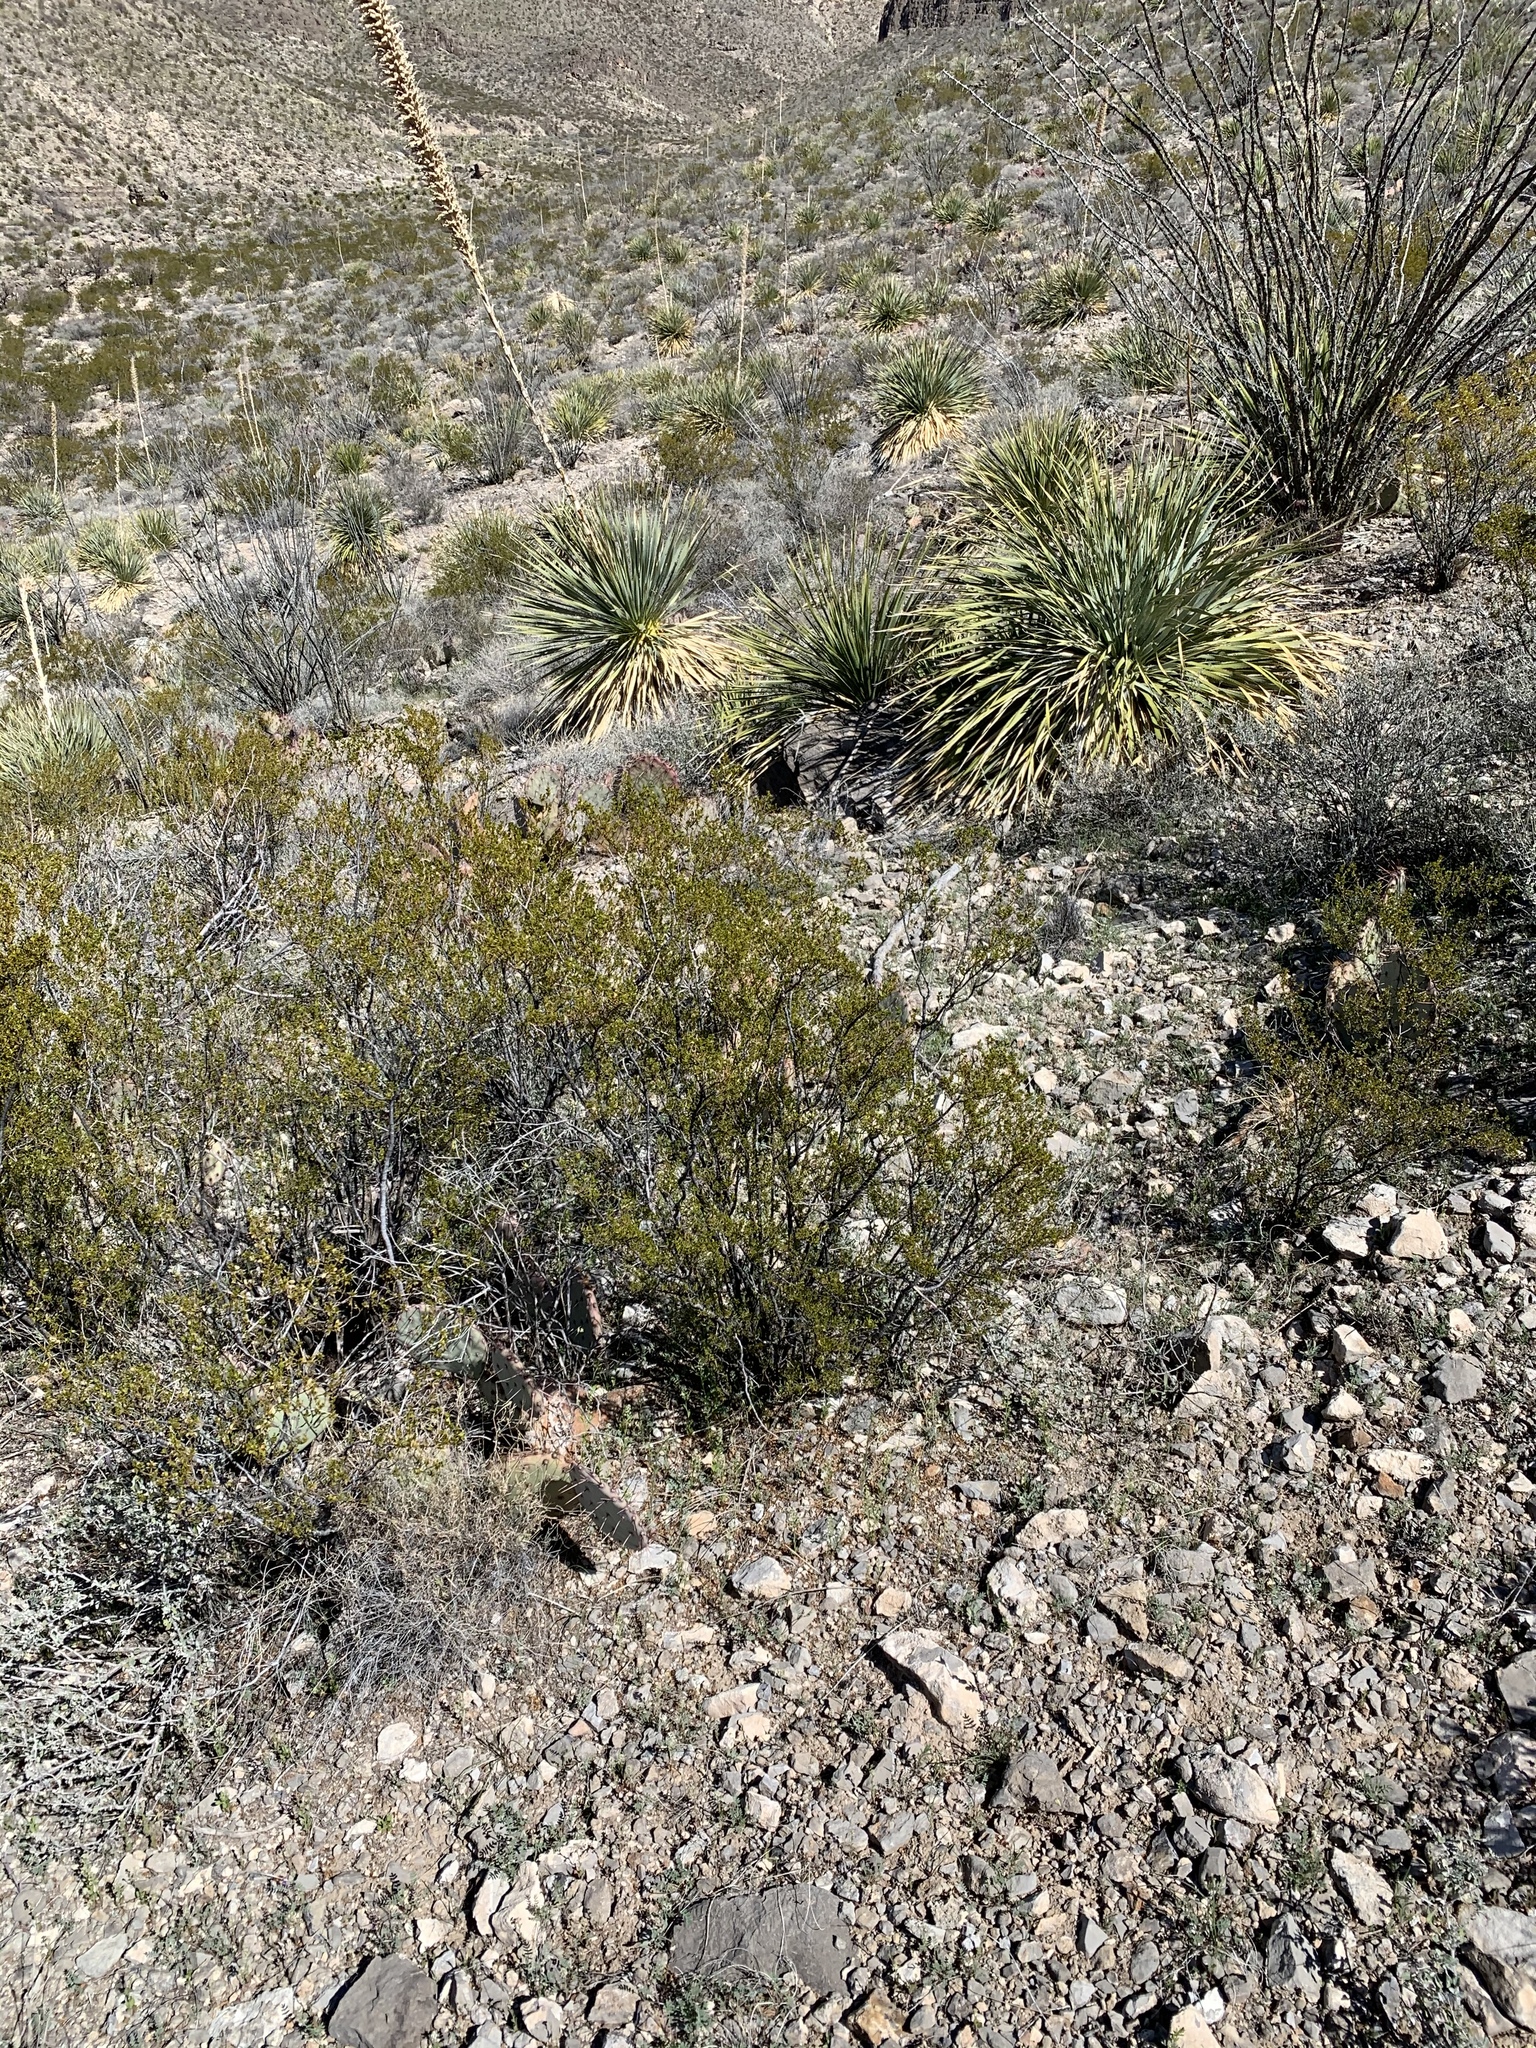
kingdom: Plantae
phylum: Tracheophyta
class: Magnoliopsida
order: Zygophyllales
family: Zygophyllaceae
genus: Larrea
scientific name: Larrea tridentata
